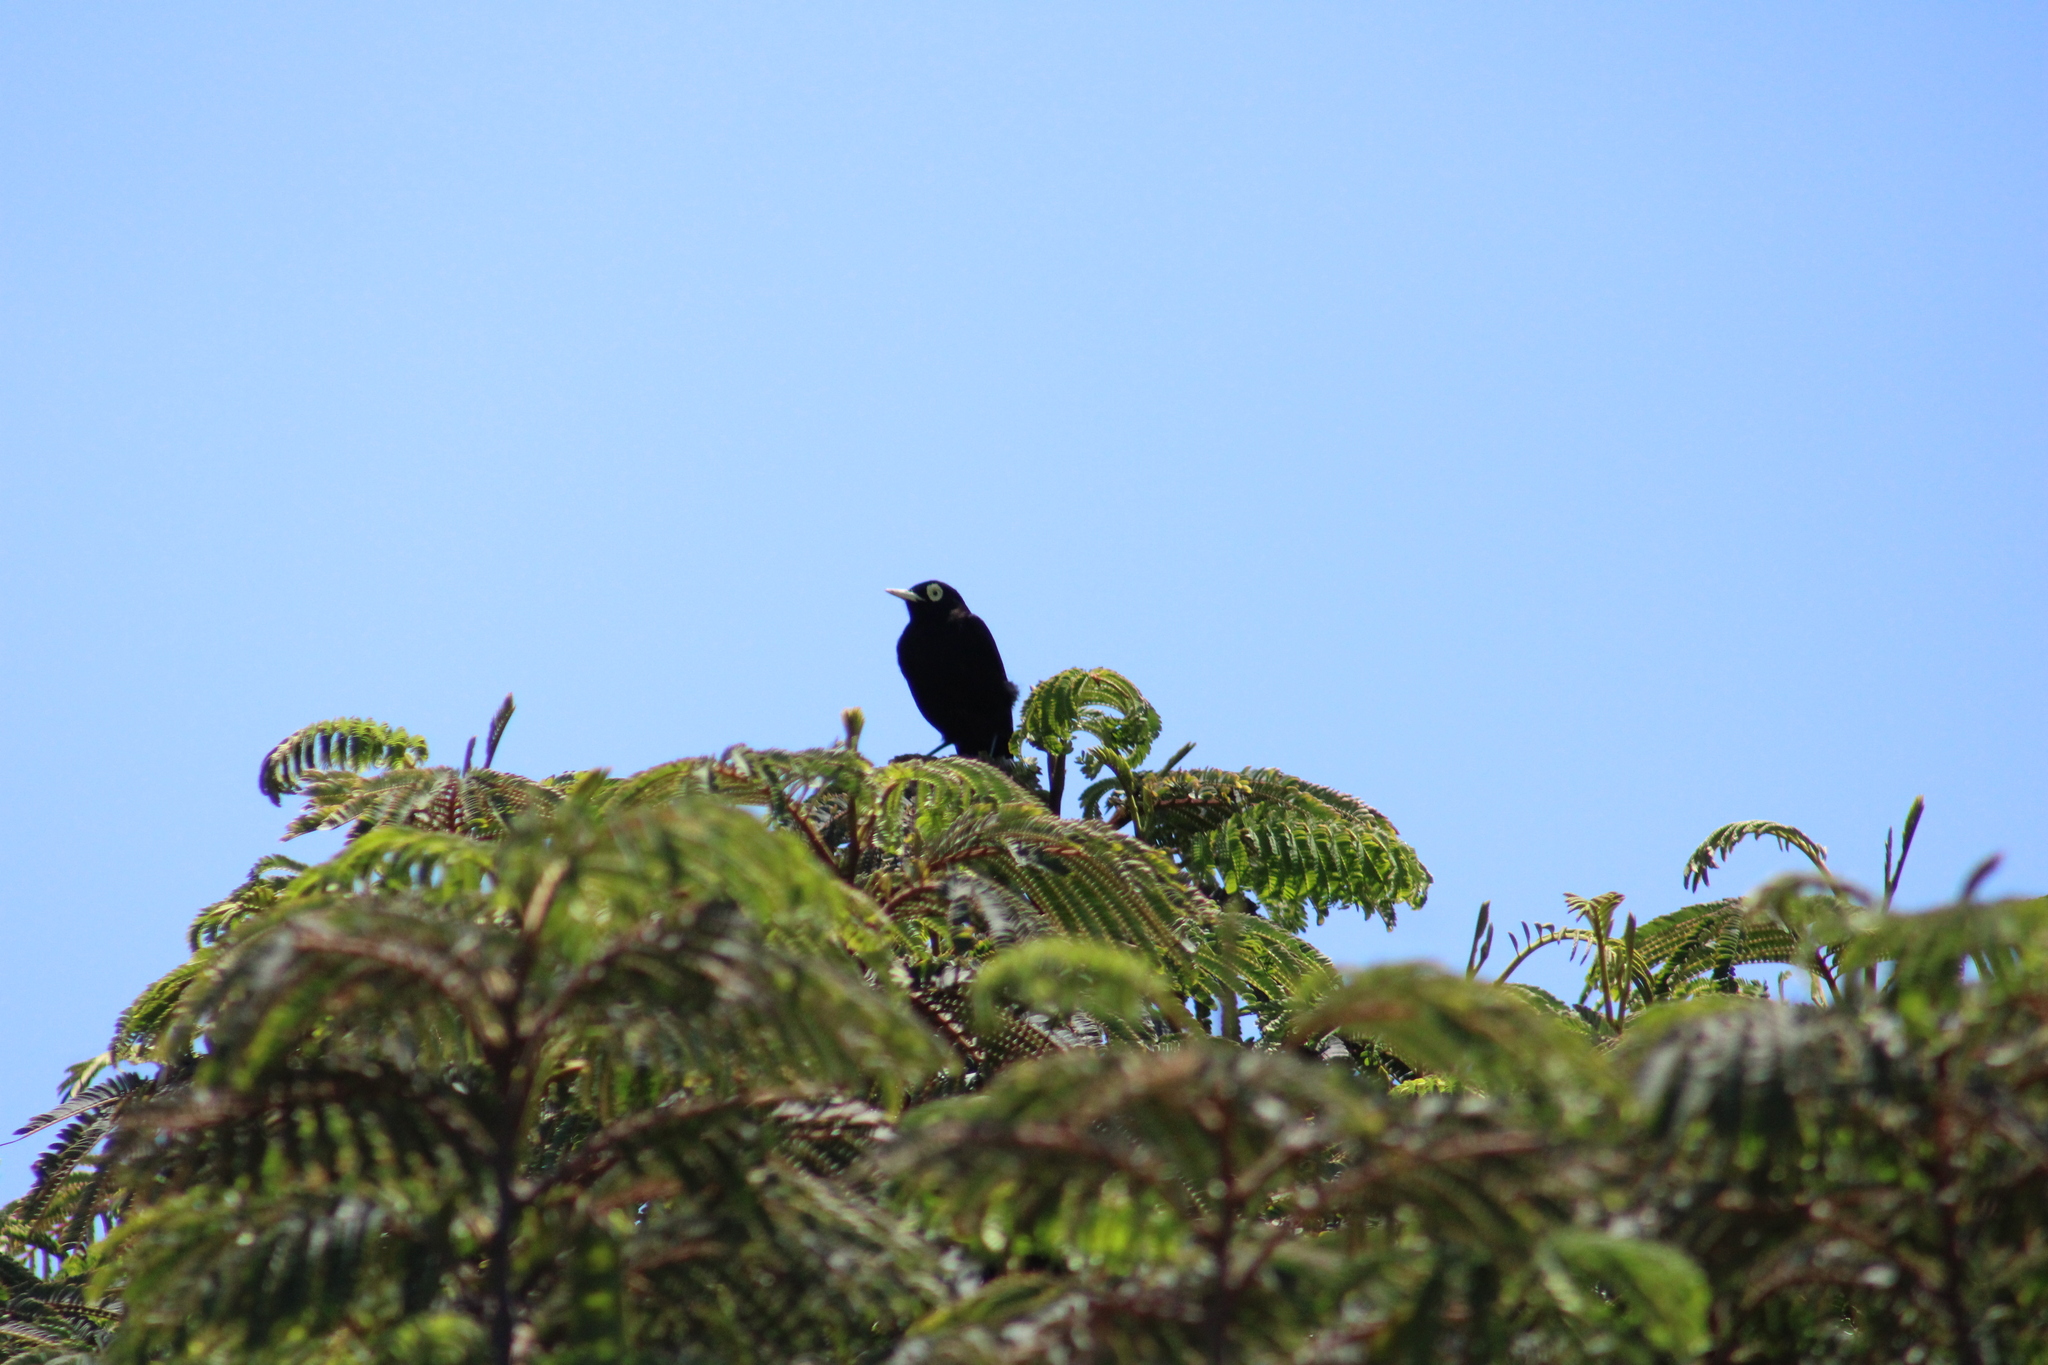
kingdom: Animalia
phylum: Chordata
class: Aves
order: Passeriformes
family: Tyrannidae
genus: Hymenops
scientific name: Hymenops perspicillatus
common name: Spectacled tyrant
